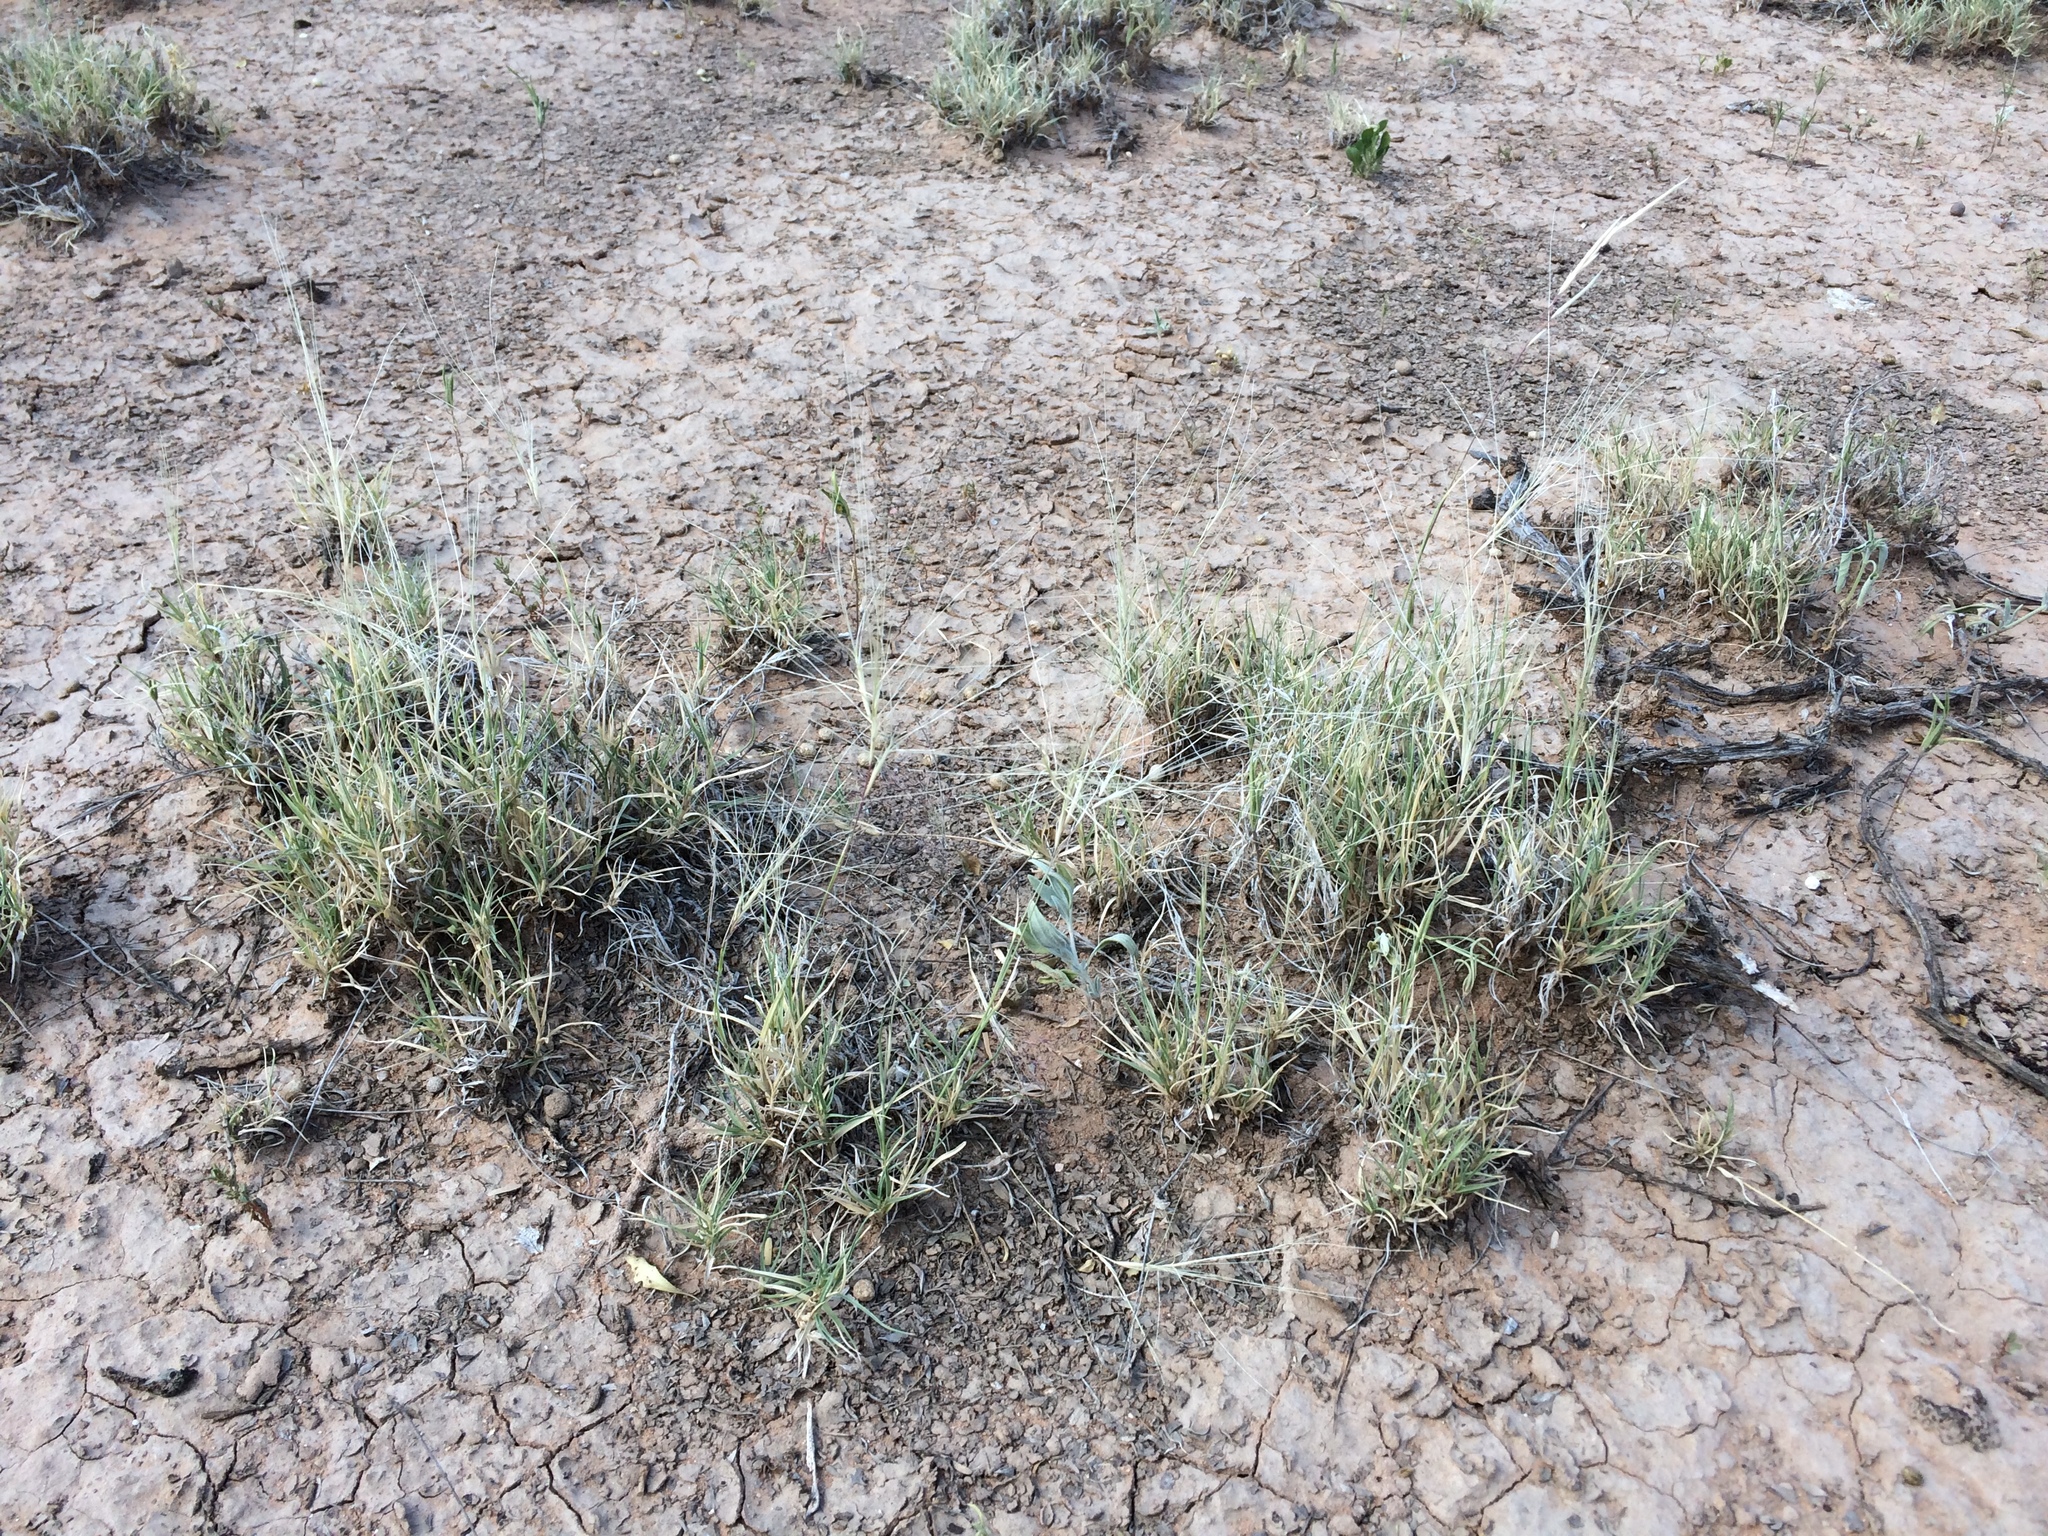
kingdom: Plantae
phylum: Tracheophyta
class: Liliopsida
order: Poales
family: Poaceae
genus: Scleropogon
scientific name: Scleropogon brevifolius
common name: Burro grass
